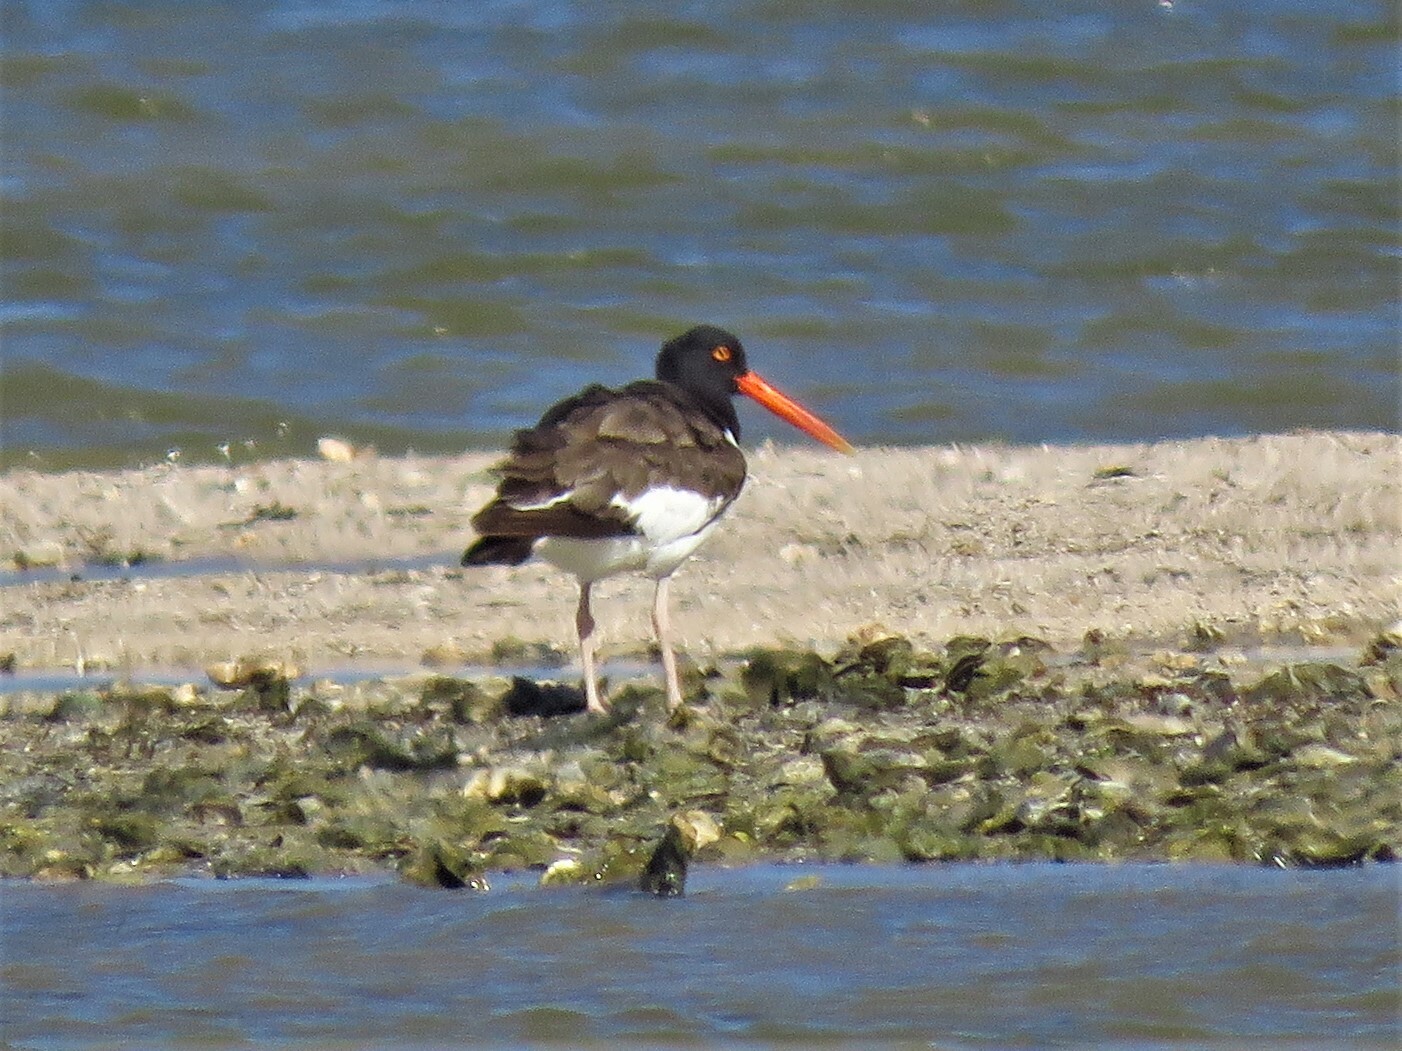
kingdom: Animalia
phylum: Chordata
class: Aves
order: Charadriiformes
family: Haematopodidae
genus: Haematopus
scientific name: Haematopus palliatus
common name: American oystercatcher
